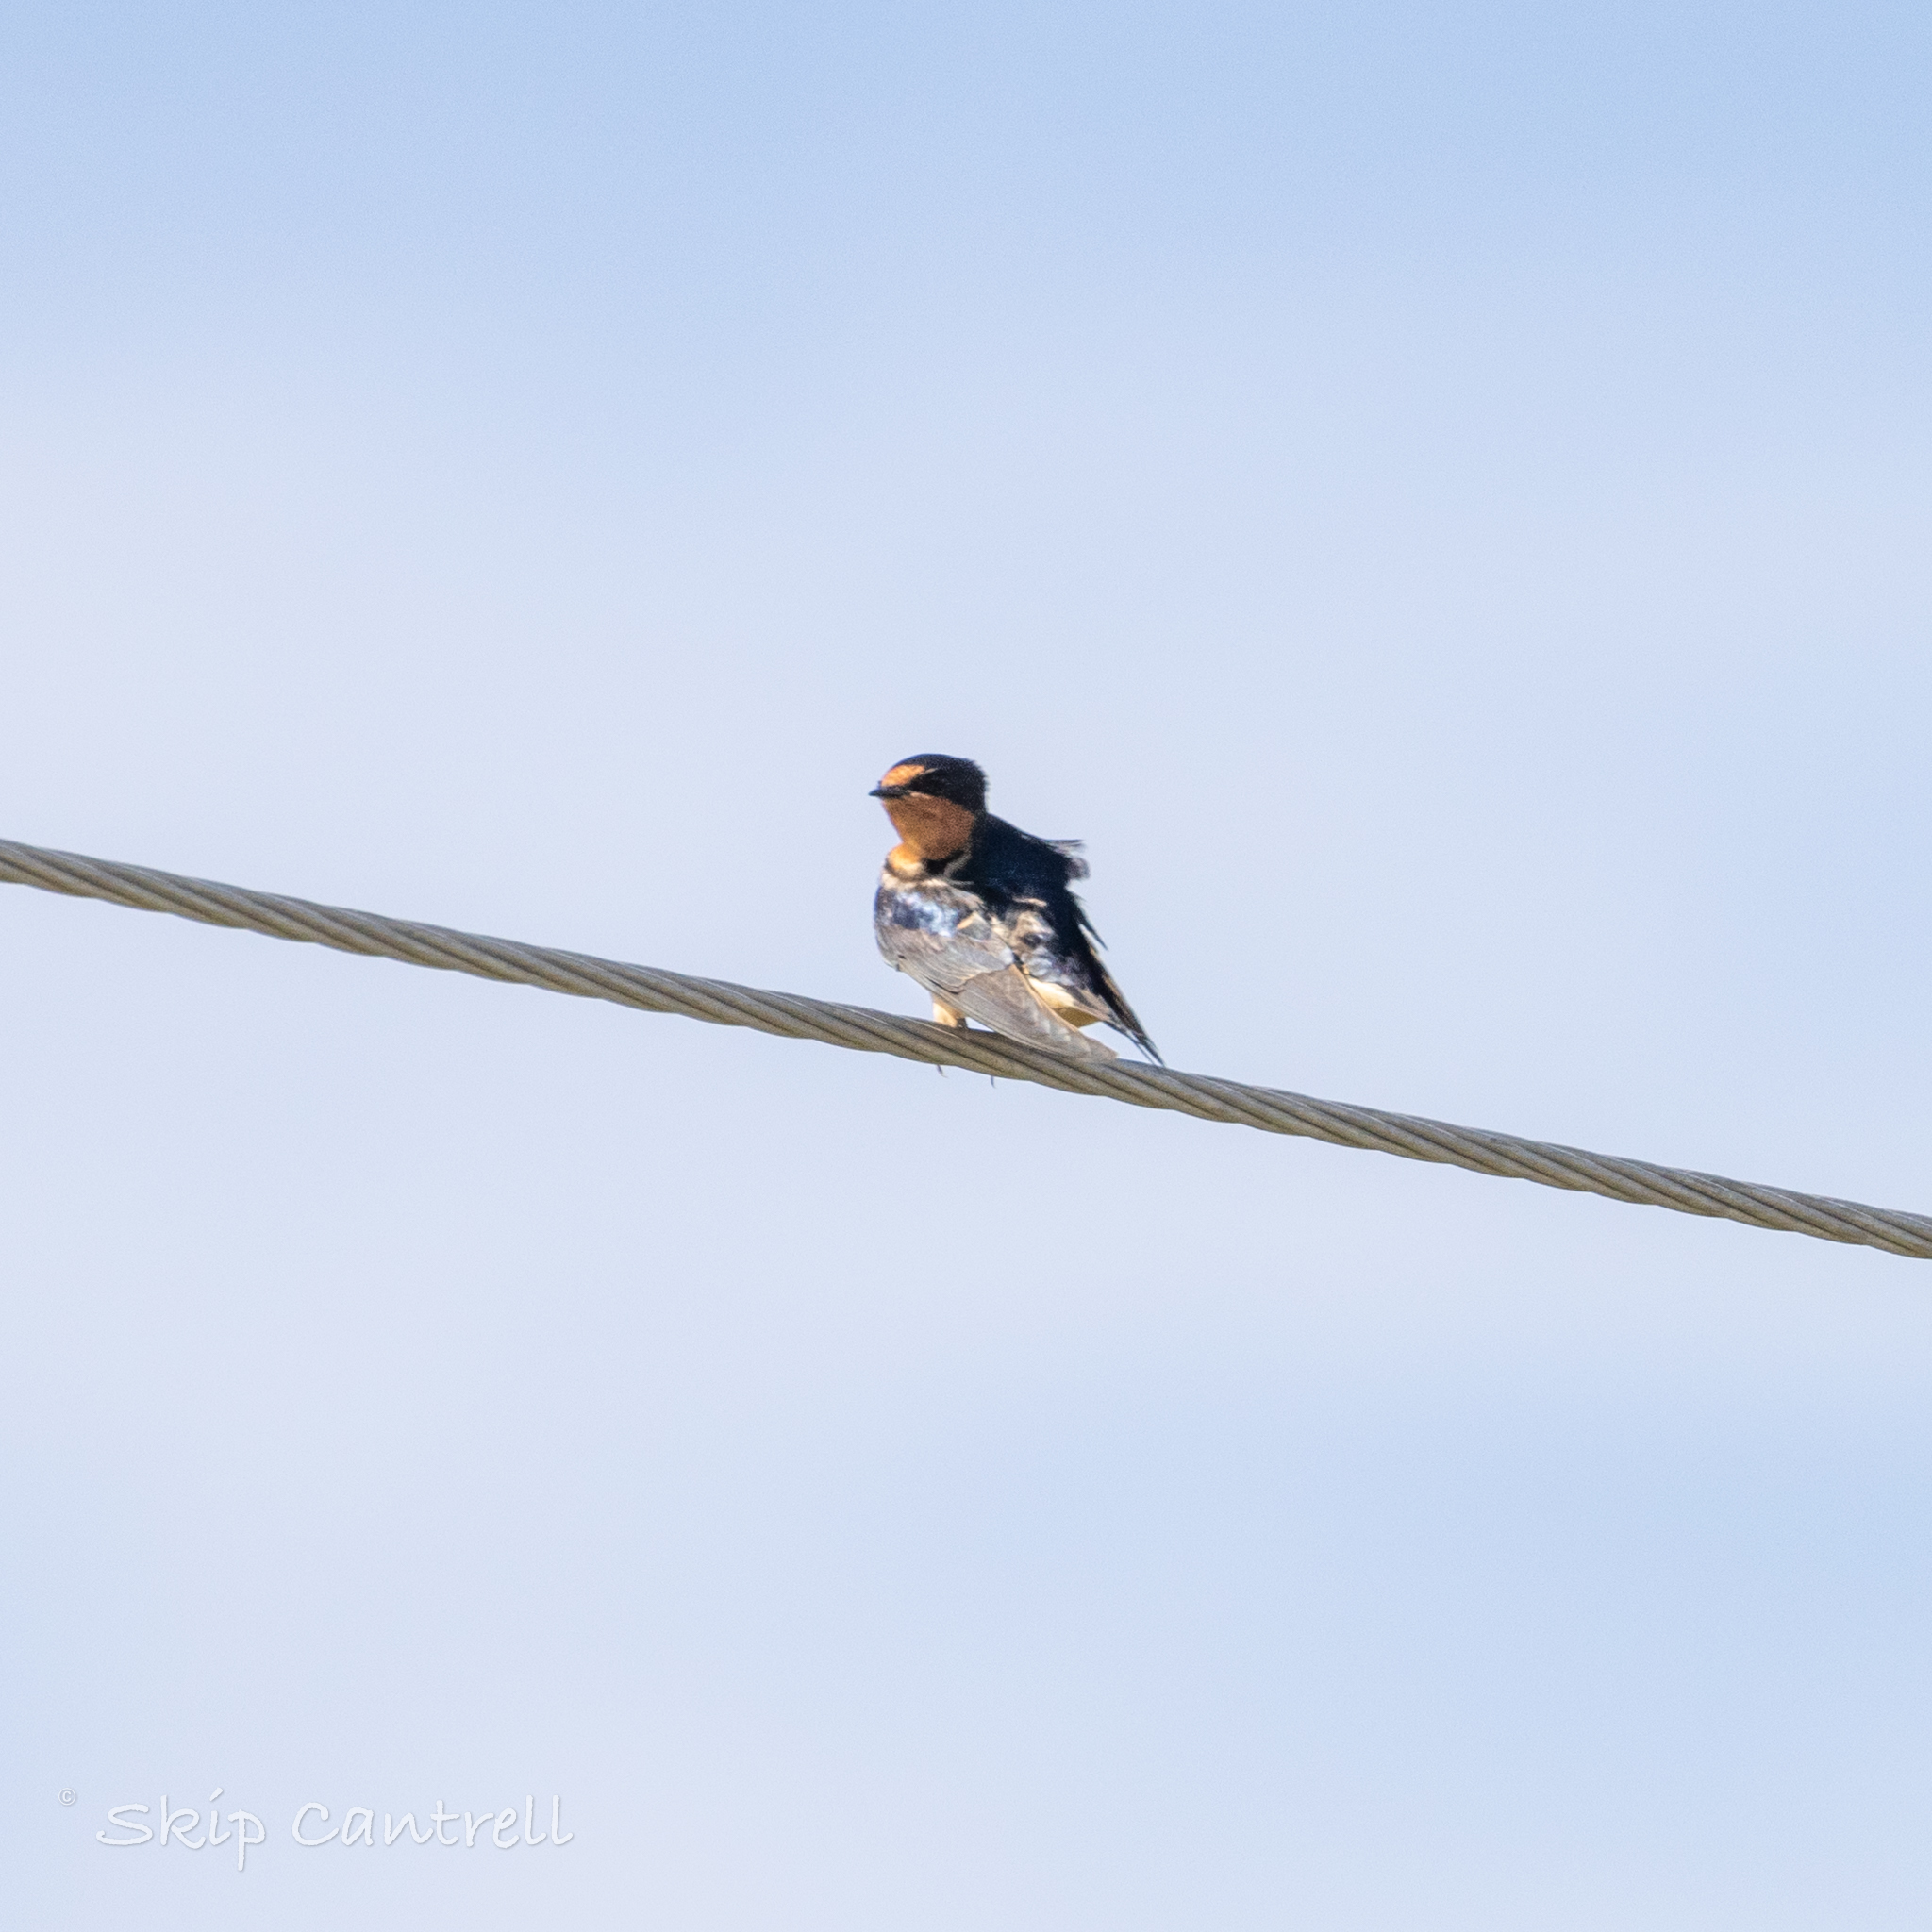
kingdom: Animalia
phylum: Chordata
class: Aves
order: Passeriformes
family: Hirundinidae
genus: Hirundo
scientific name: Hirundo rustica
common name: Barn swallow
